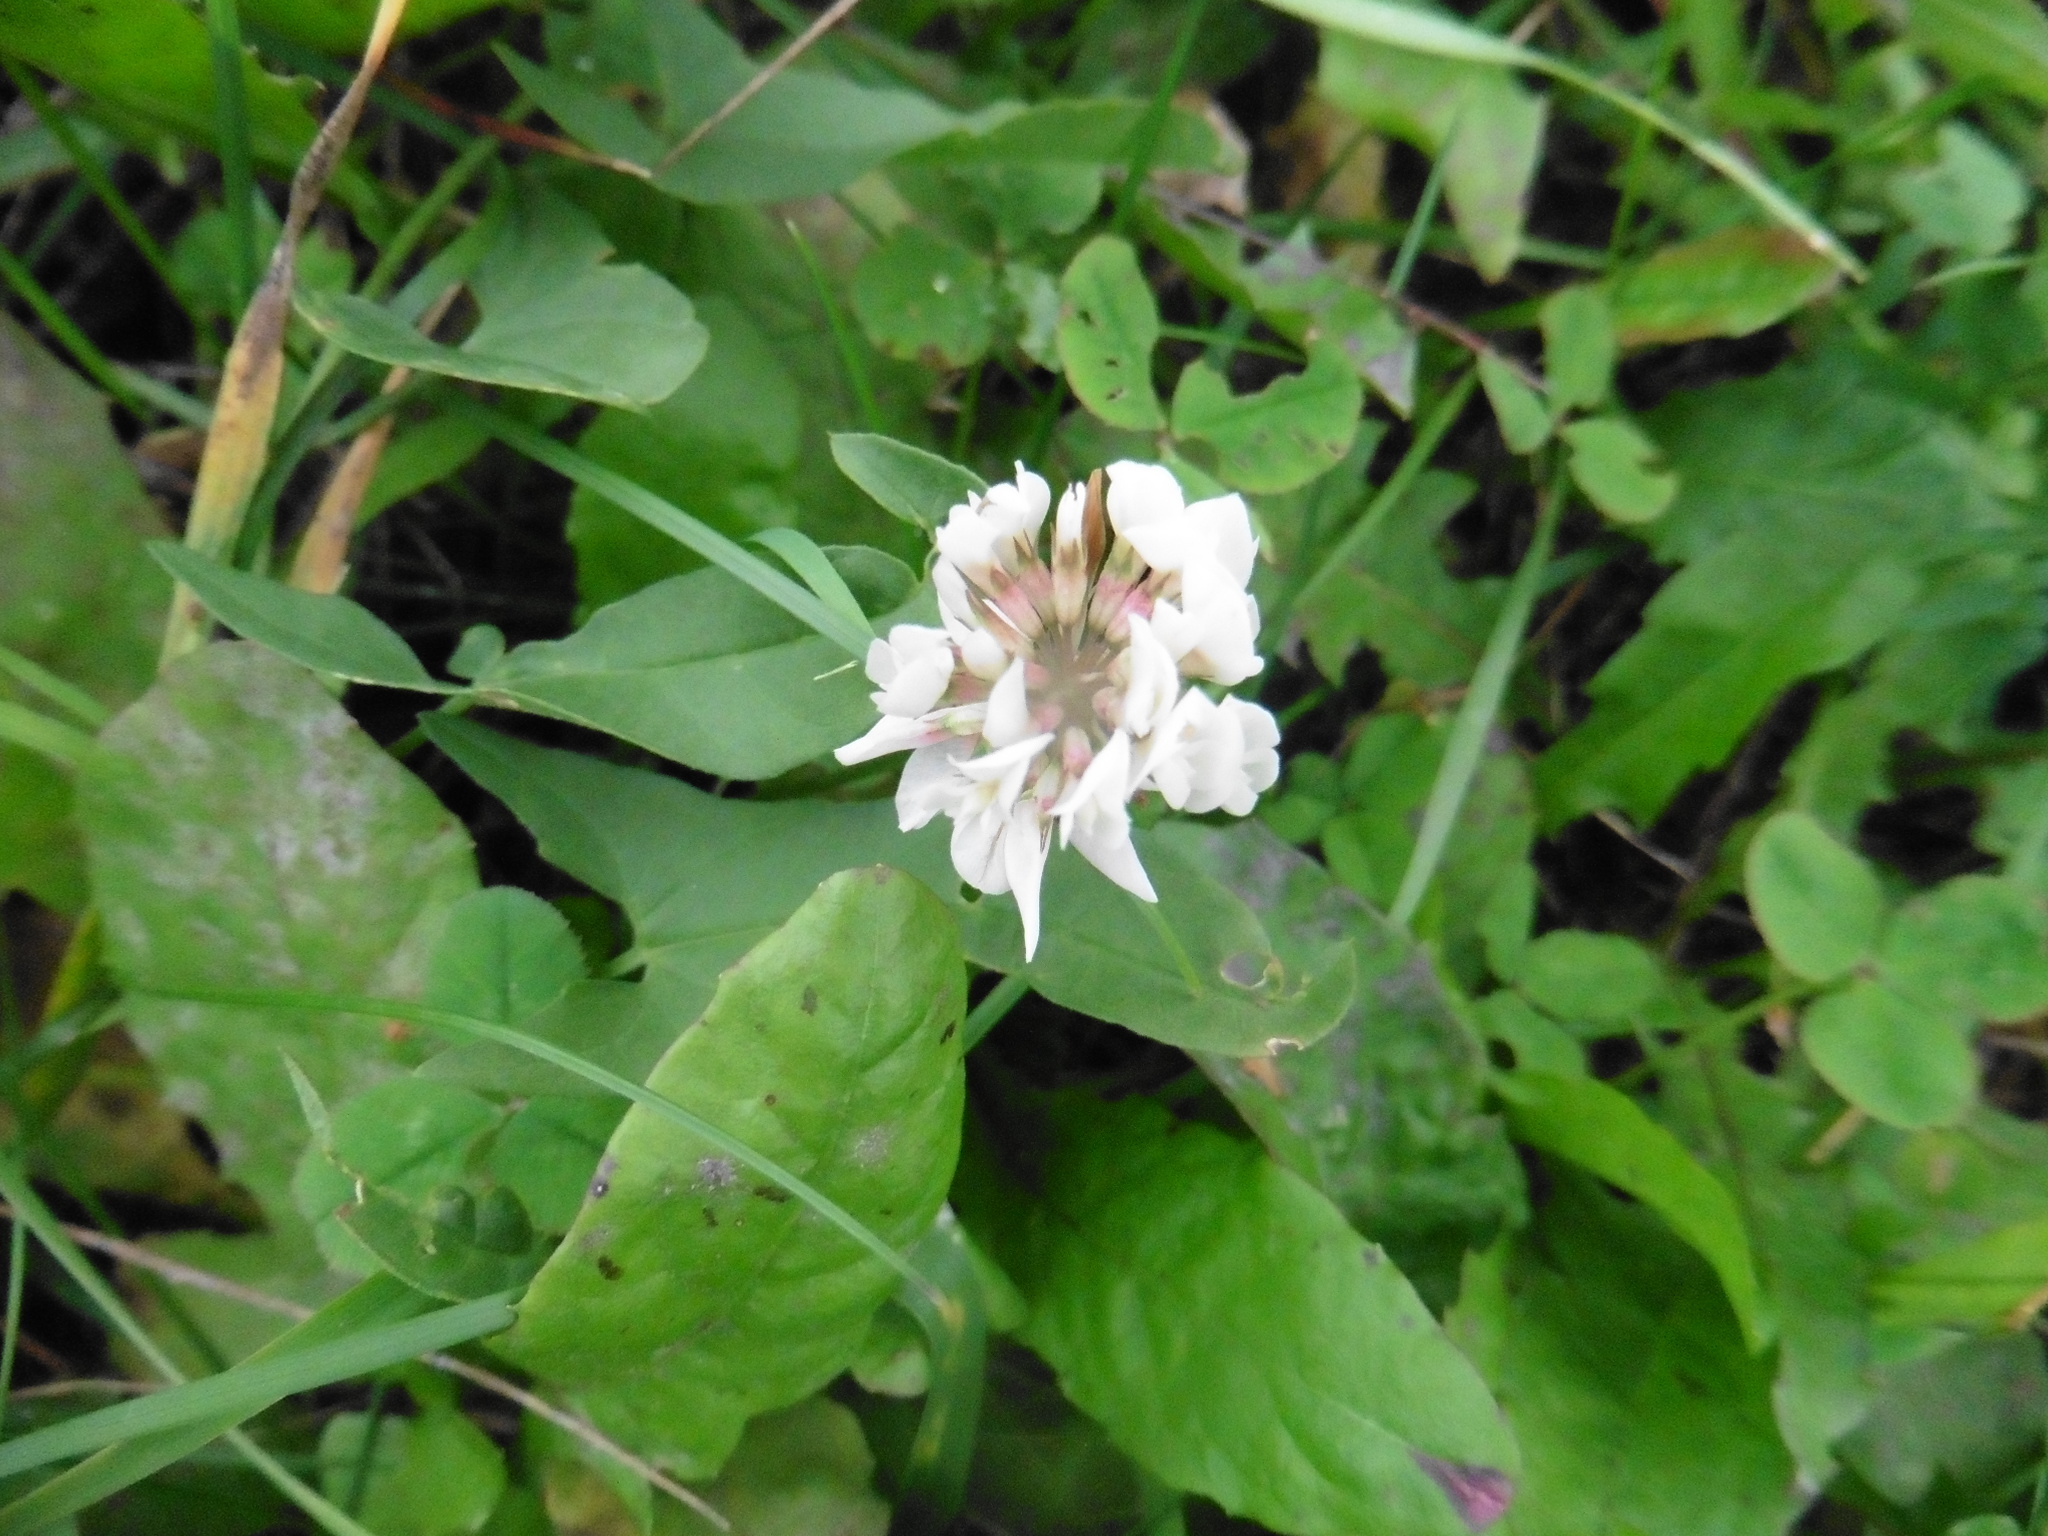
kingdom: Plantae
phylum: Tracheophyta
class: Magnoliopsida
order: Fabales
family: Fabaceae
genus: Trifolium
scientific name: Trifolium repens
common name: White clover
